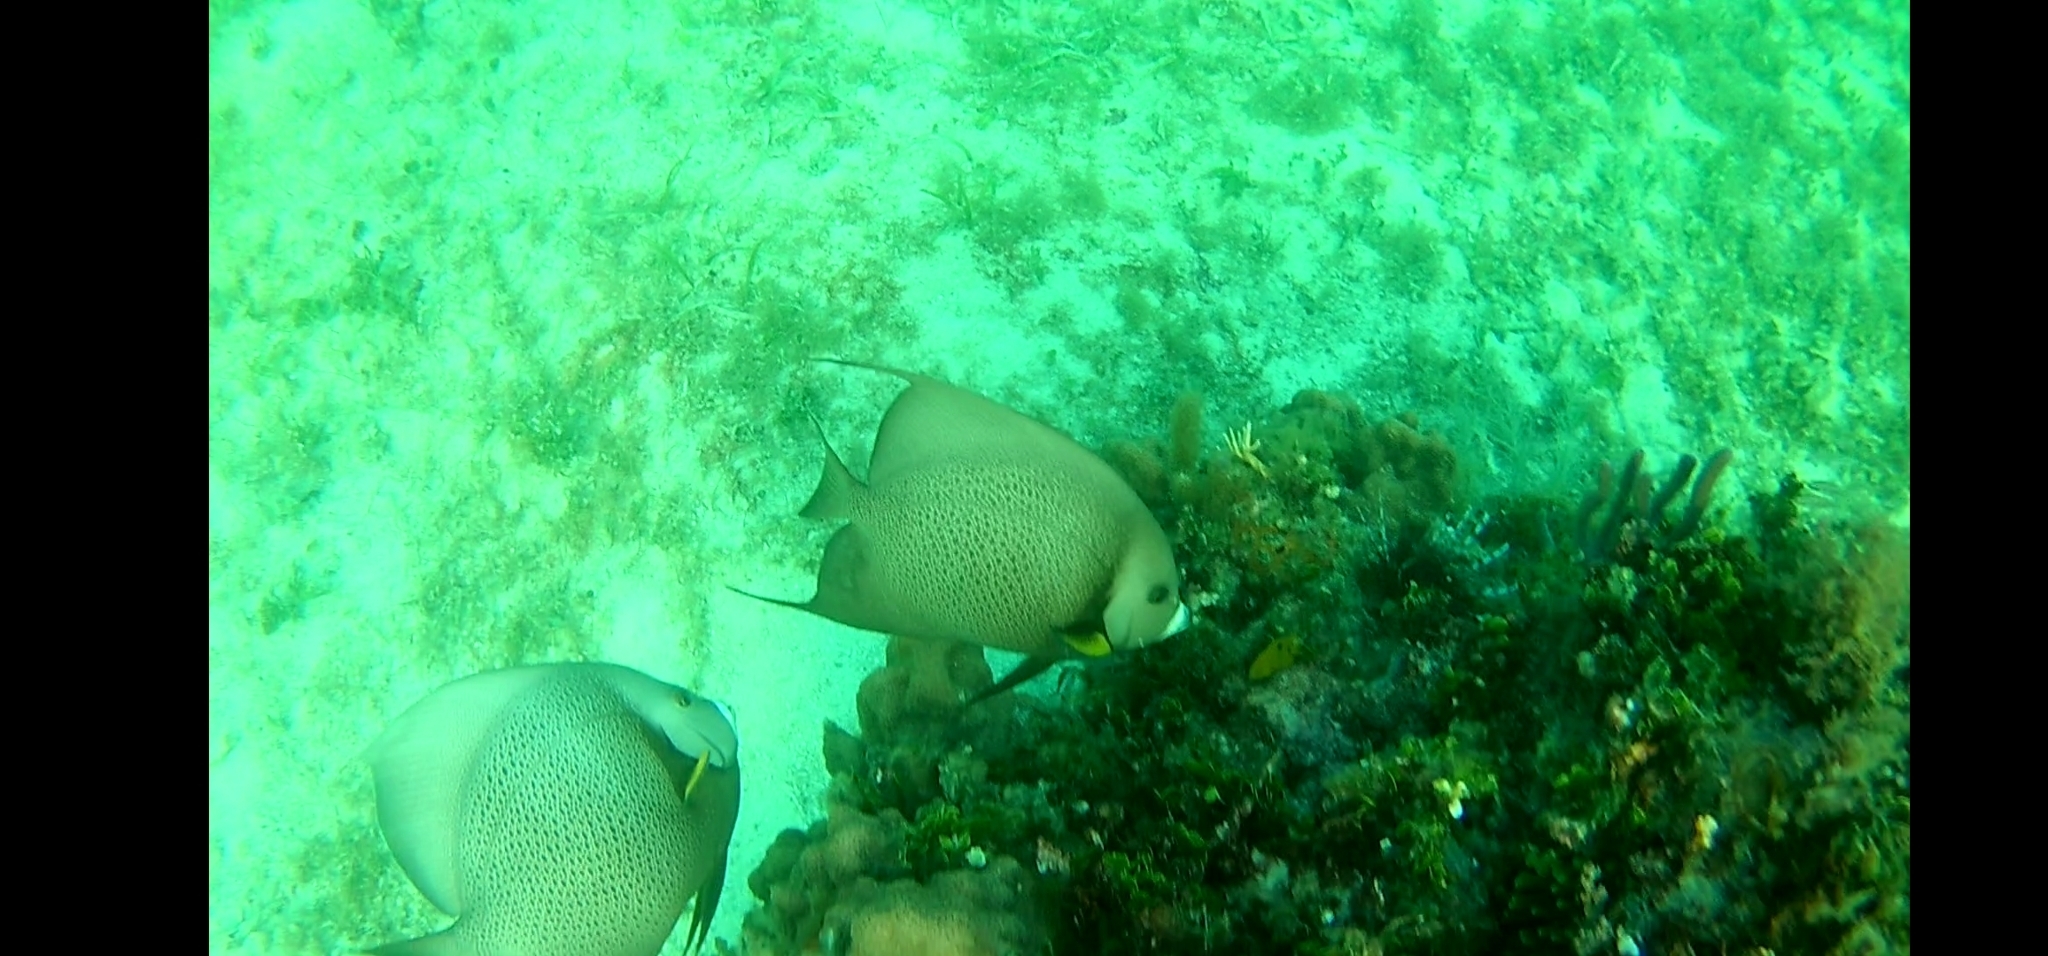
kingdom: Animalia
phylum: Chordata
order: Perciformes
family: Pomacanthidae
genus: Pomacanthus
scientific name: Pomacanthus arcuatus
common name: Gray angelfish
